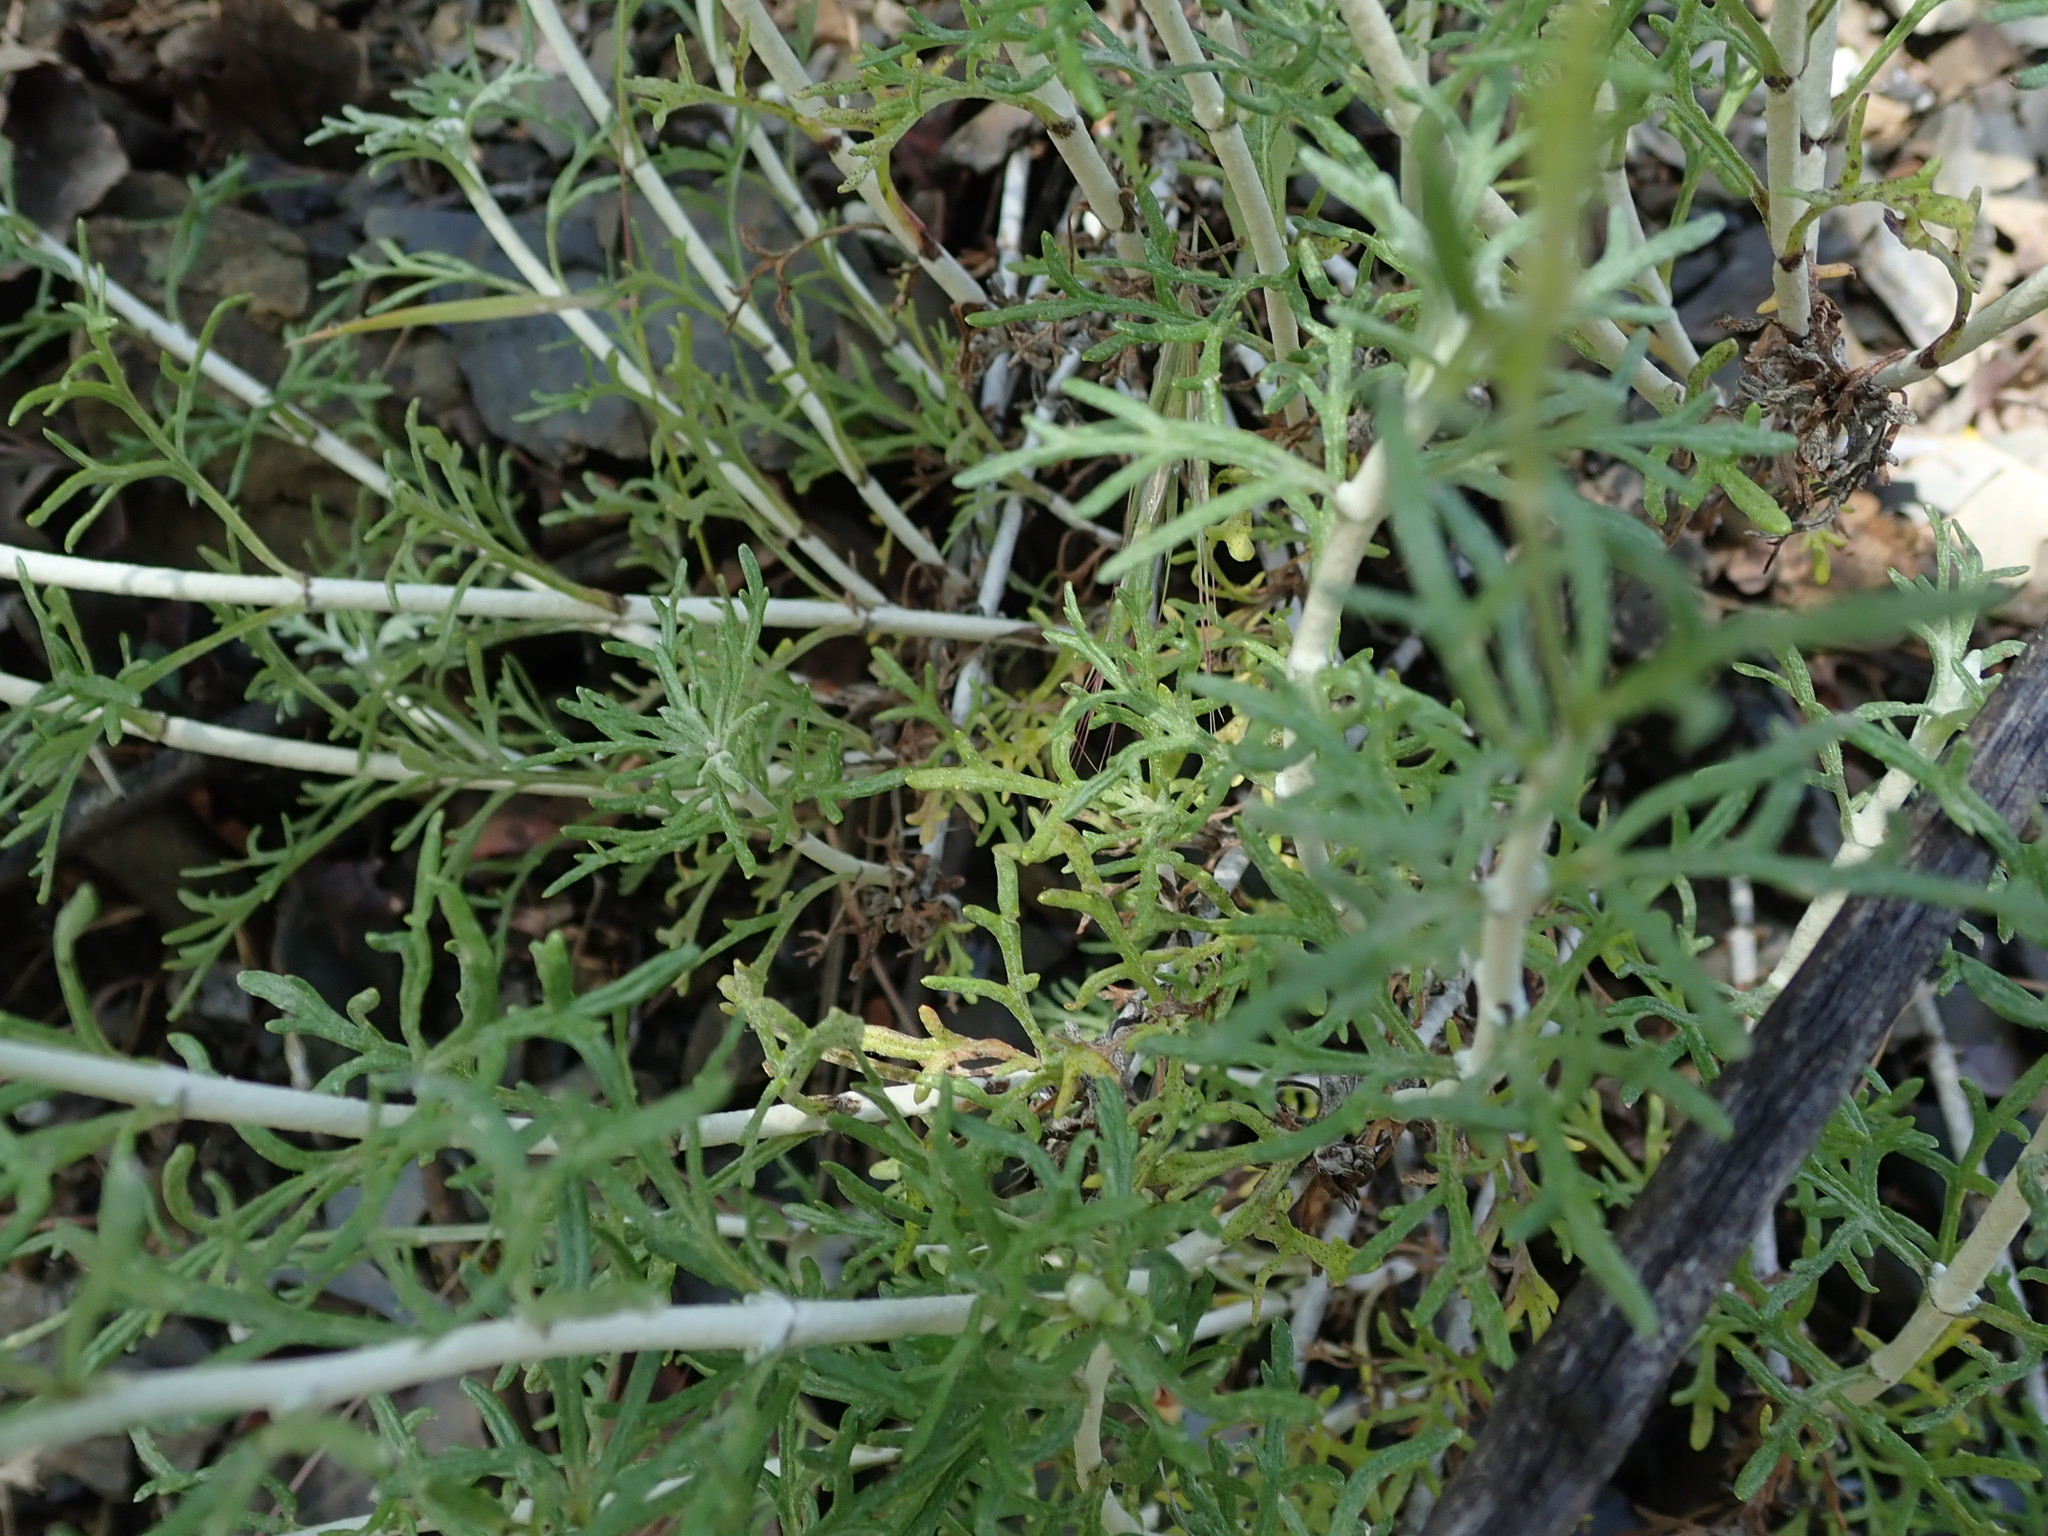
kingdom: Plantae
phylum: Tracheophyta
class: Magnoliopsida
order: Asterales
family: Asteraceae
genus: Eriophyllum
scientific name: Eriophyllum confertiflorum
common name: Golden-yarrow
